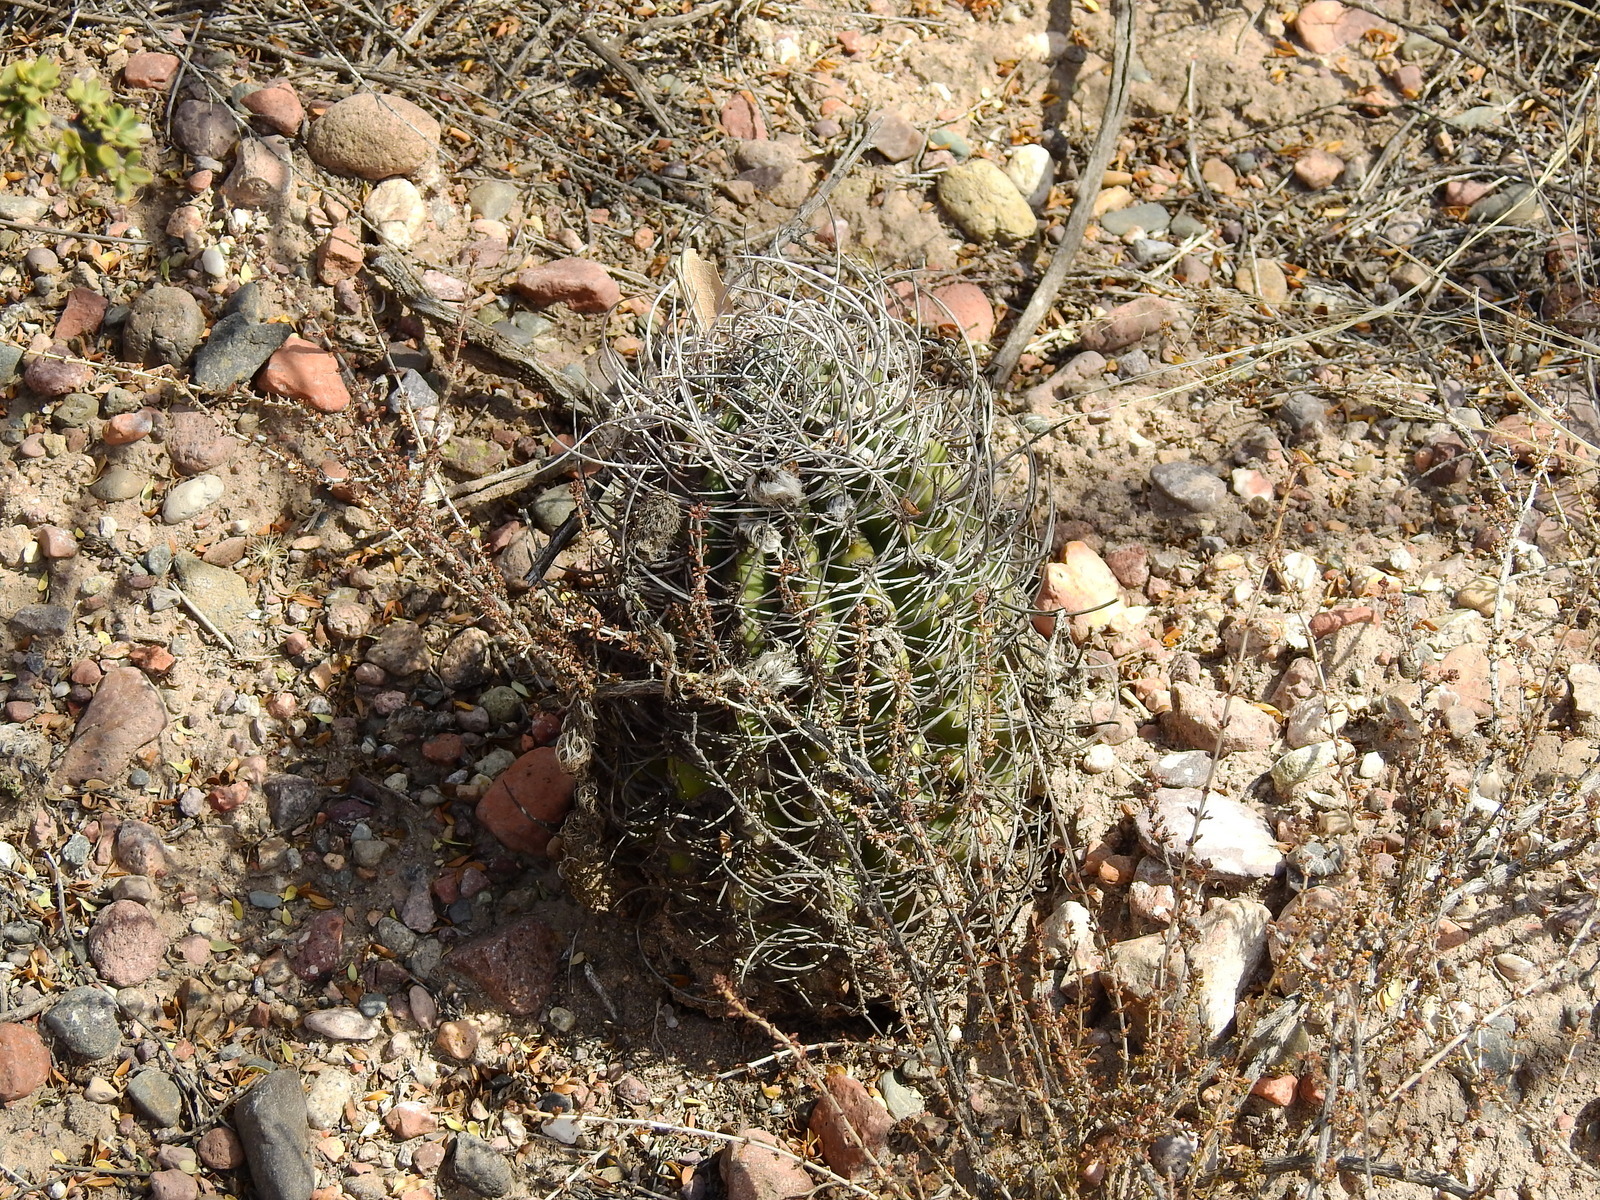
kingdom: Plantae
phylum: Tracheophyta
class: Magnoliopsida
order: Caryophyllales
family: Cactaceae
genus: Acanthocalycium
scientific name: Acanthocalycium leucanthum
